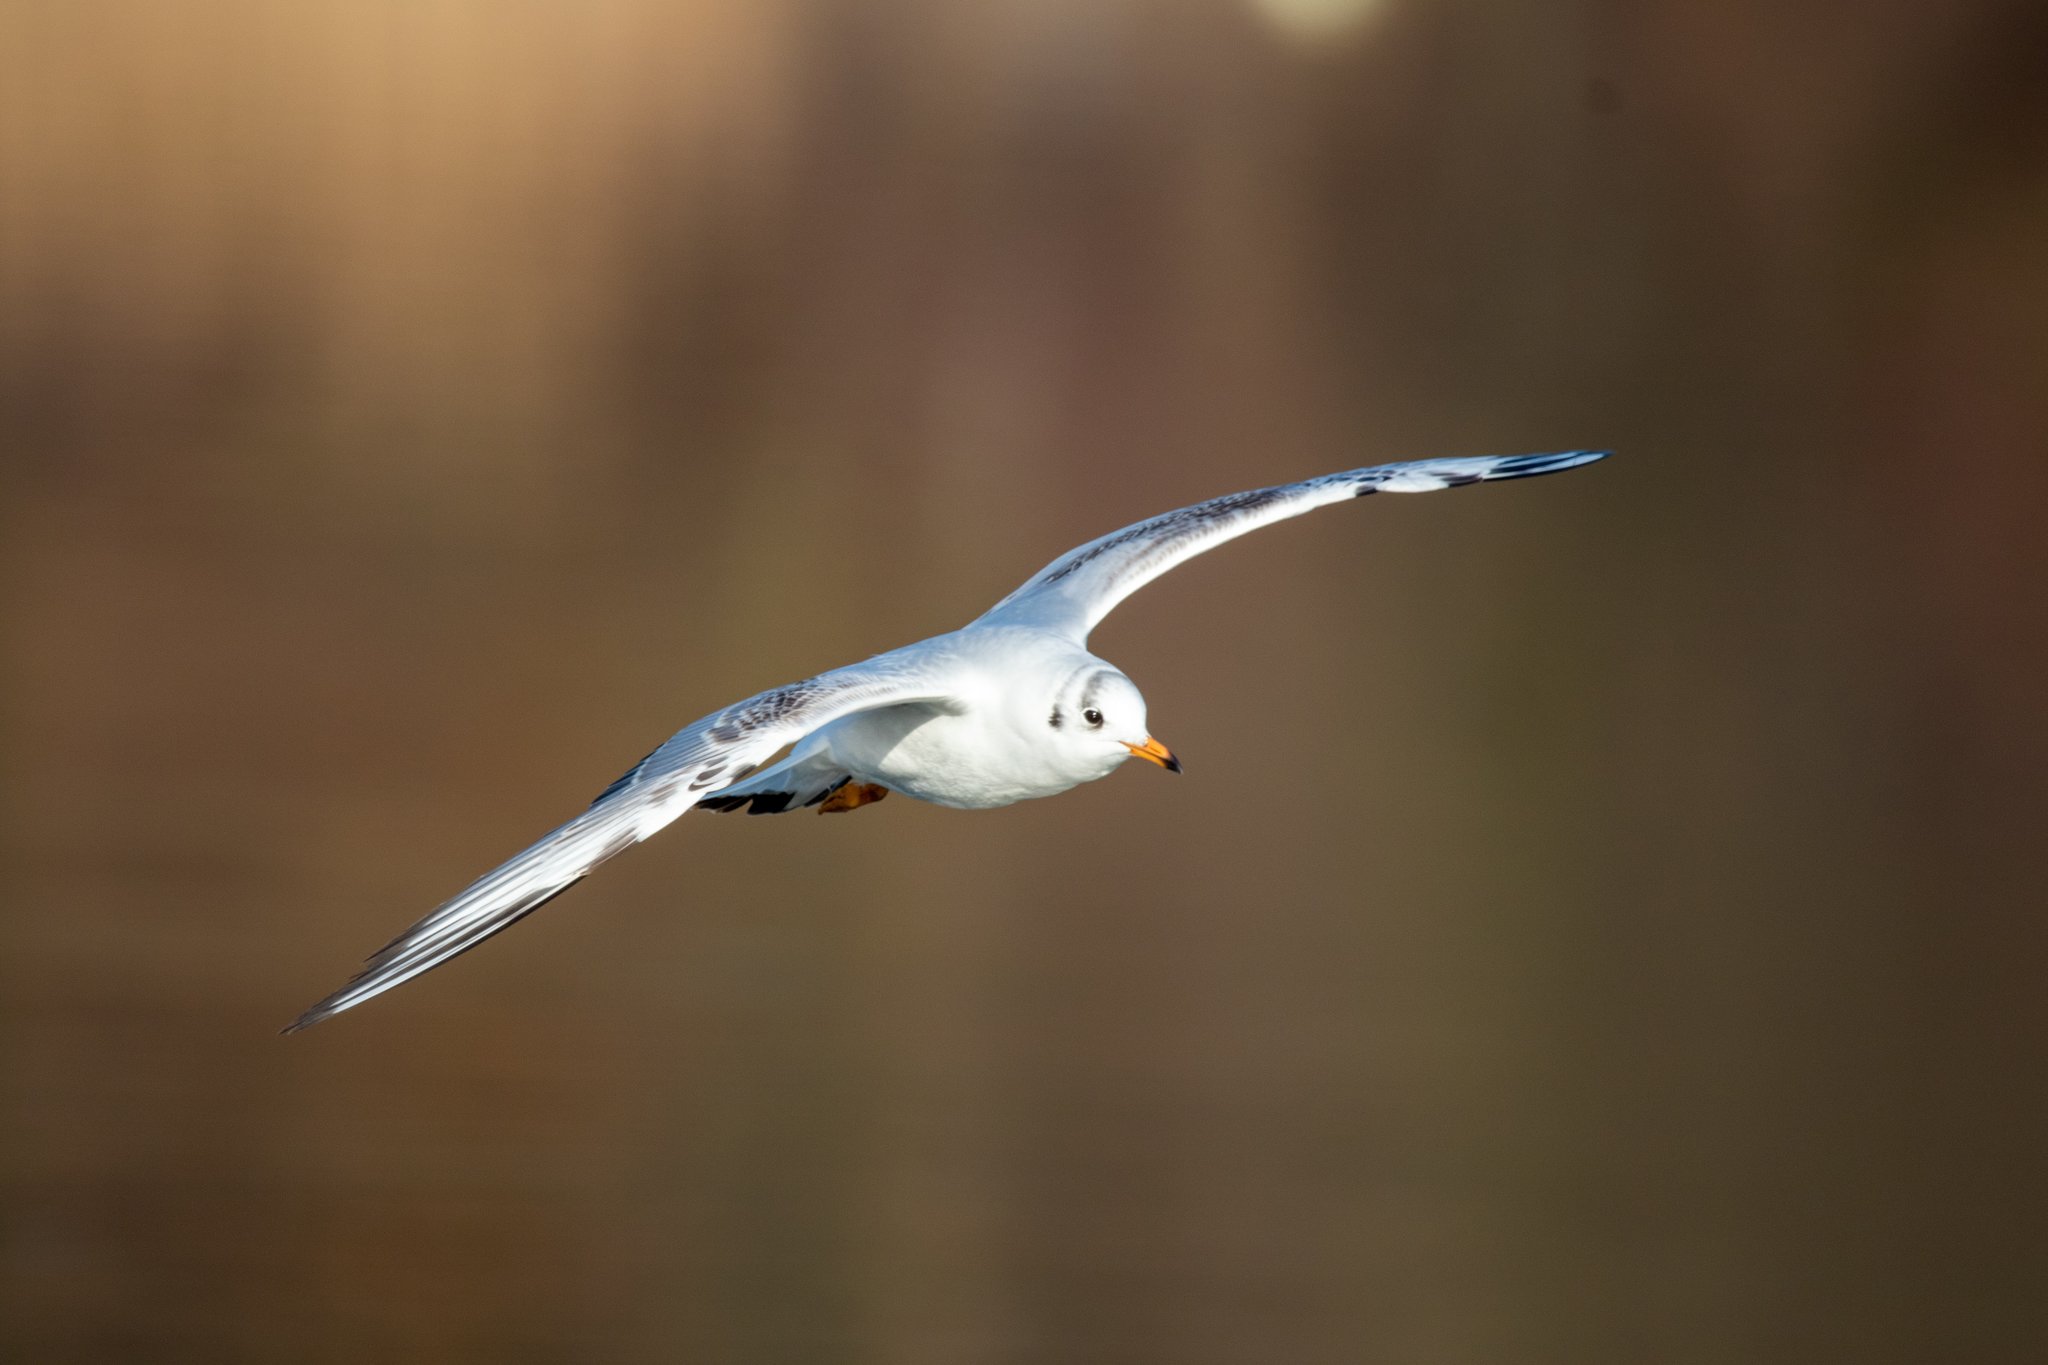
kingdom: Animalia
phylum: Chordata
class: Aves
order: Charadriiformes
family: Laridae
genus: Chroicocephalus
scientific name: Chroicocephalus ridibundus
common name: Black-headed gull
